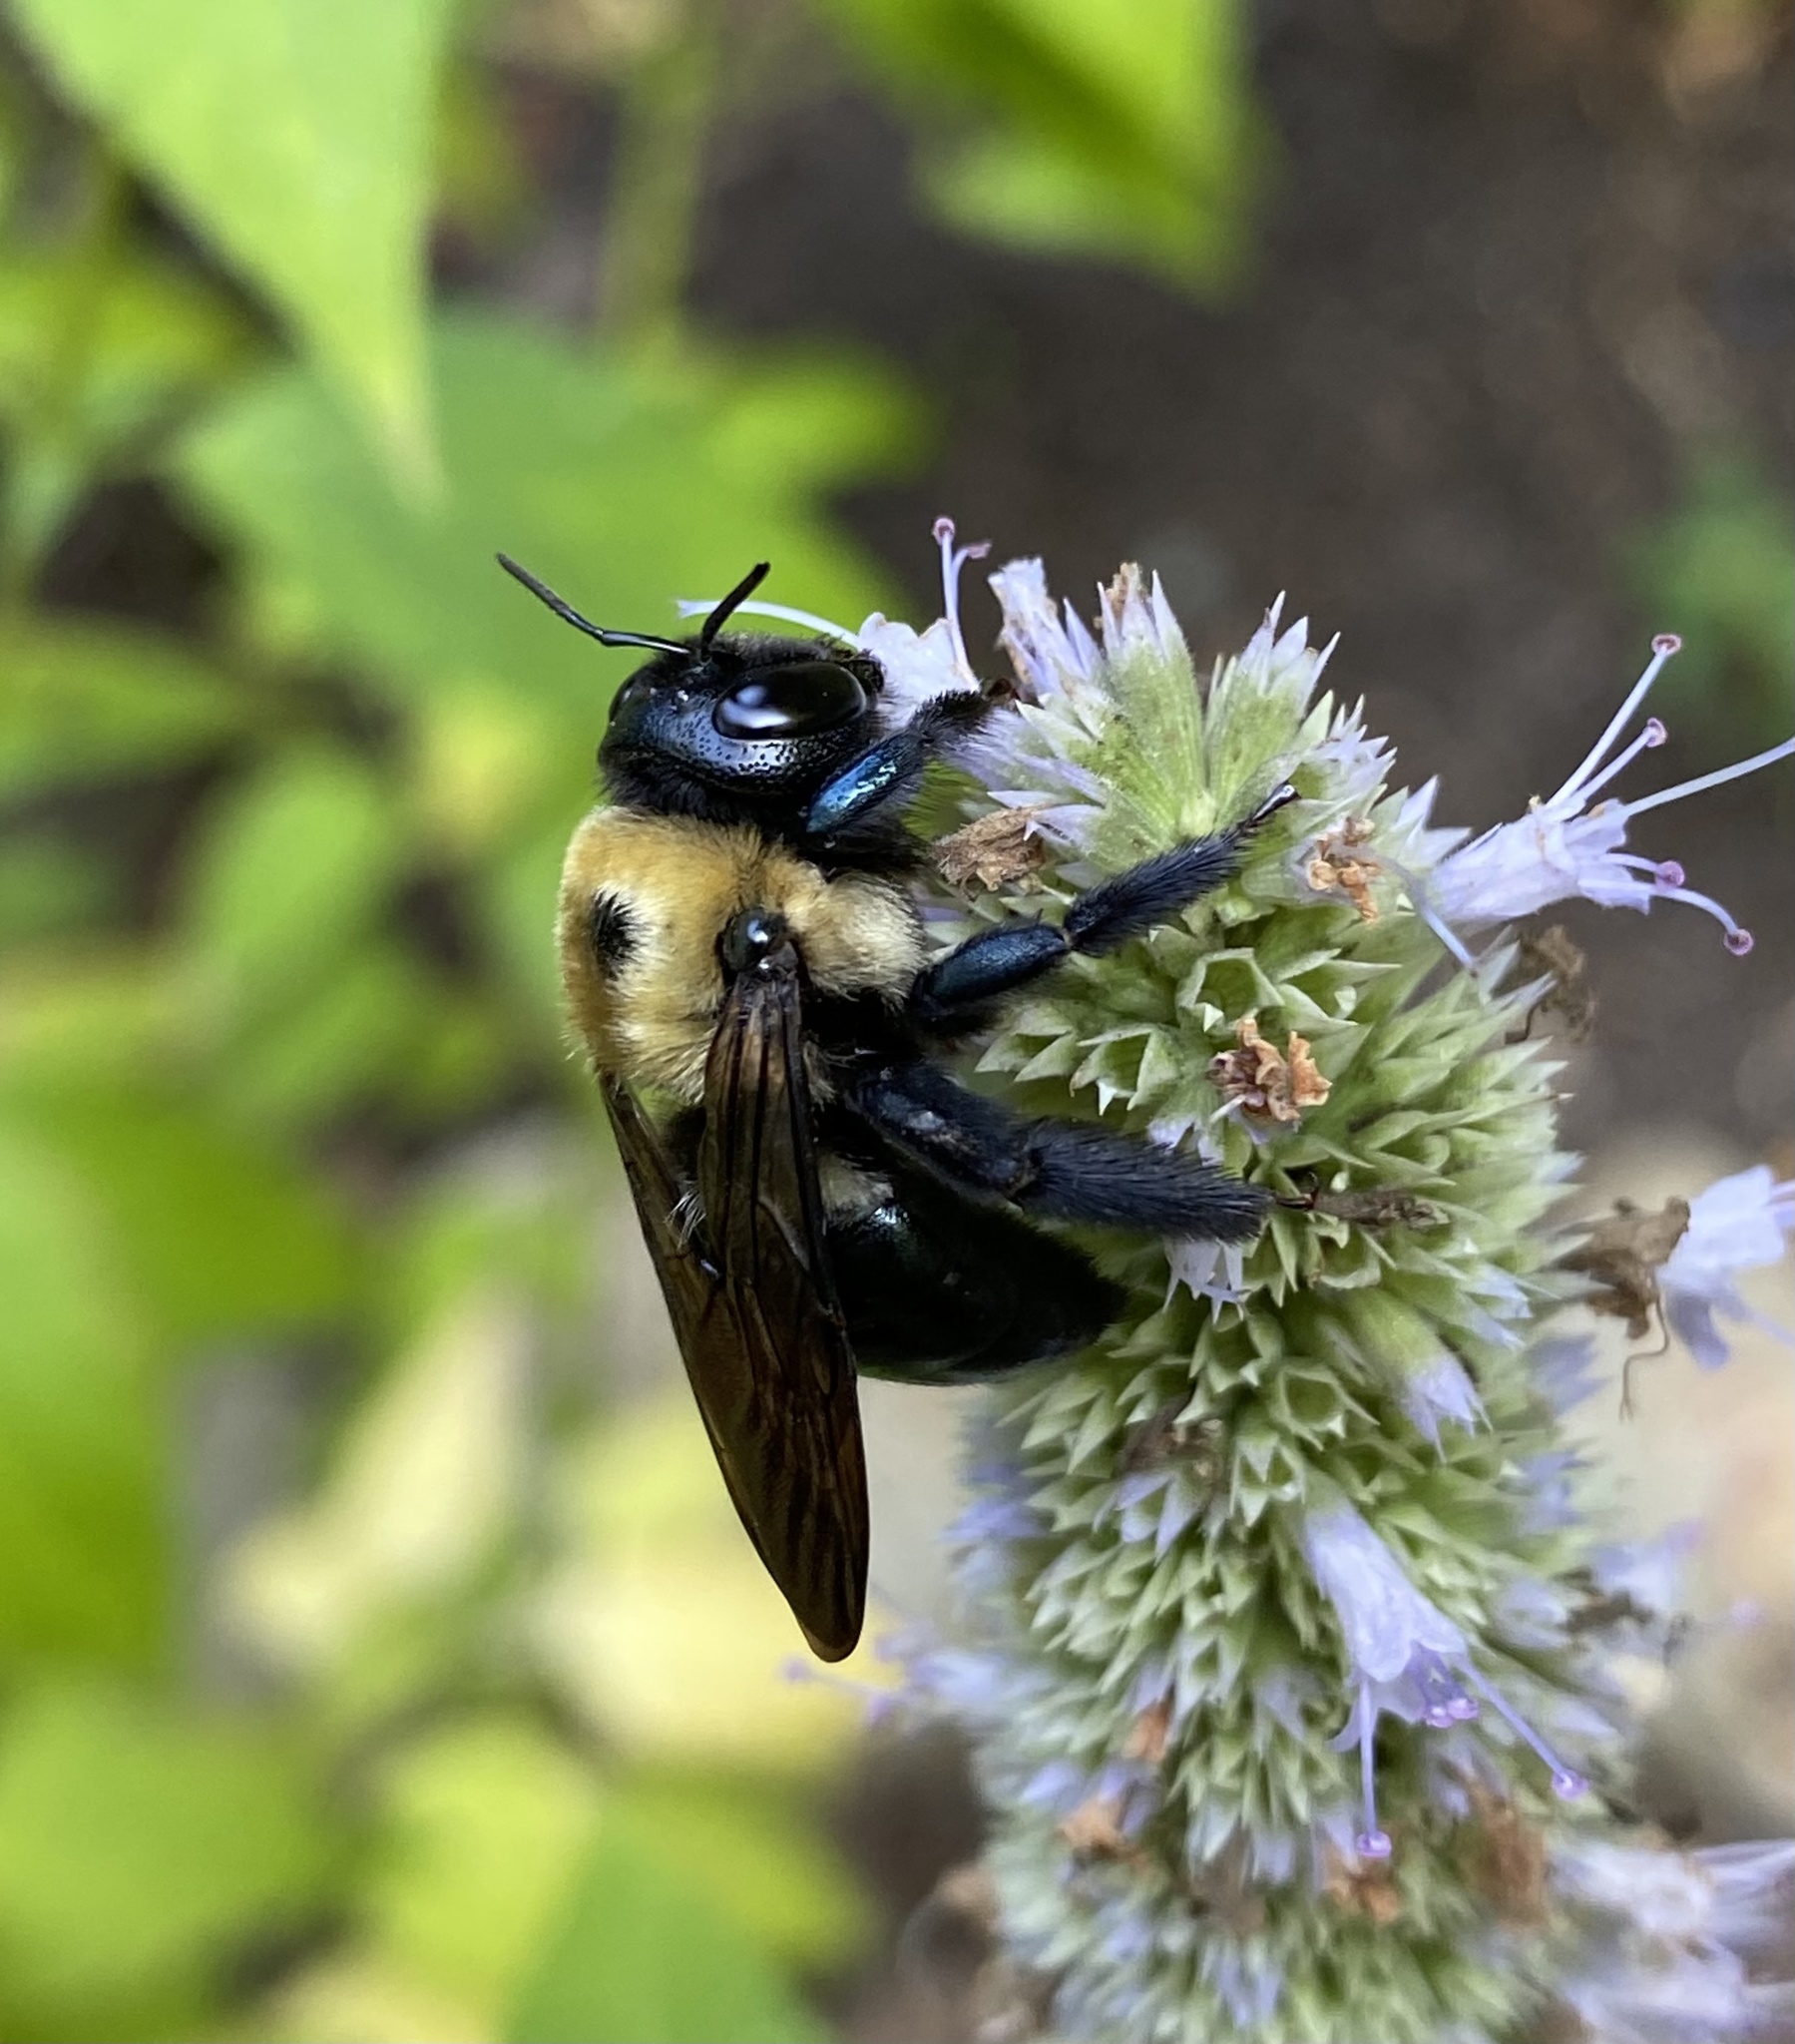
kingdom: Animalia
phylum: Arthropoda
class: Insecta
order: Hymenoptera
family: Apidae
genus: Xylocopa
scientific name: Xylocopa virginica
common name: Carpenter bee
